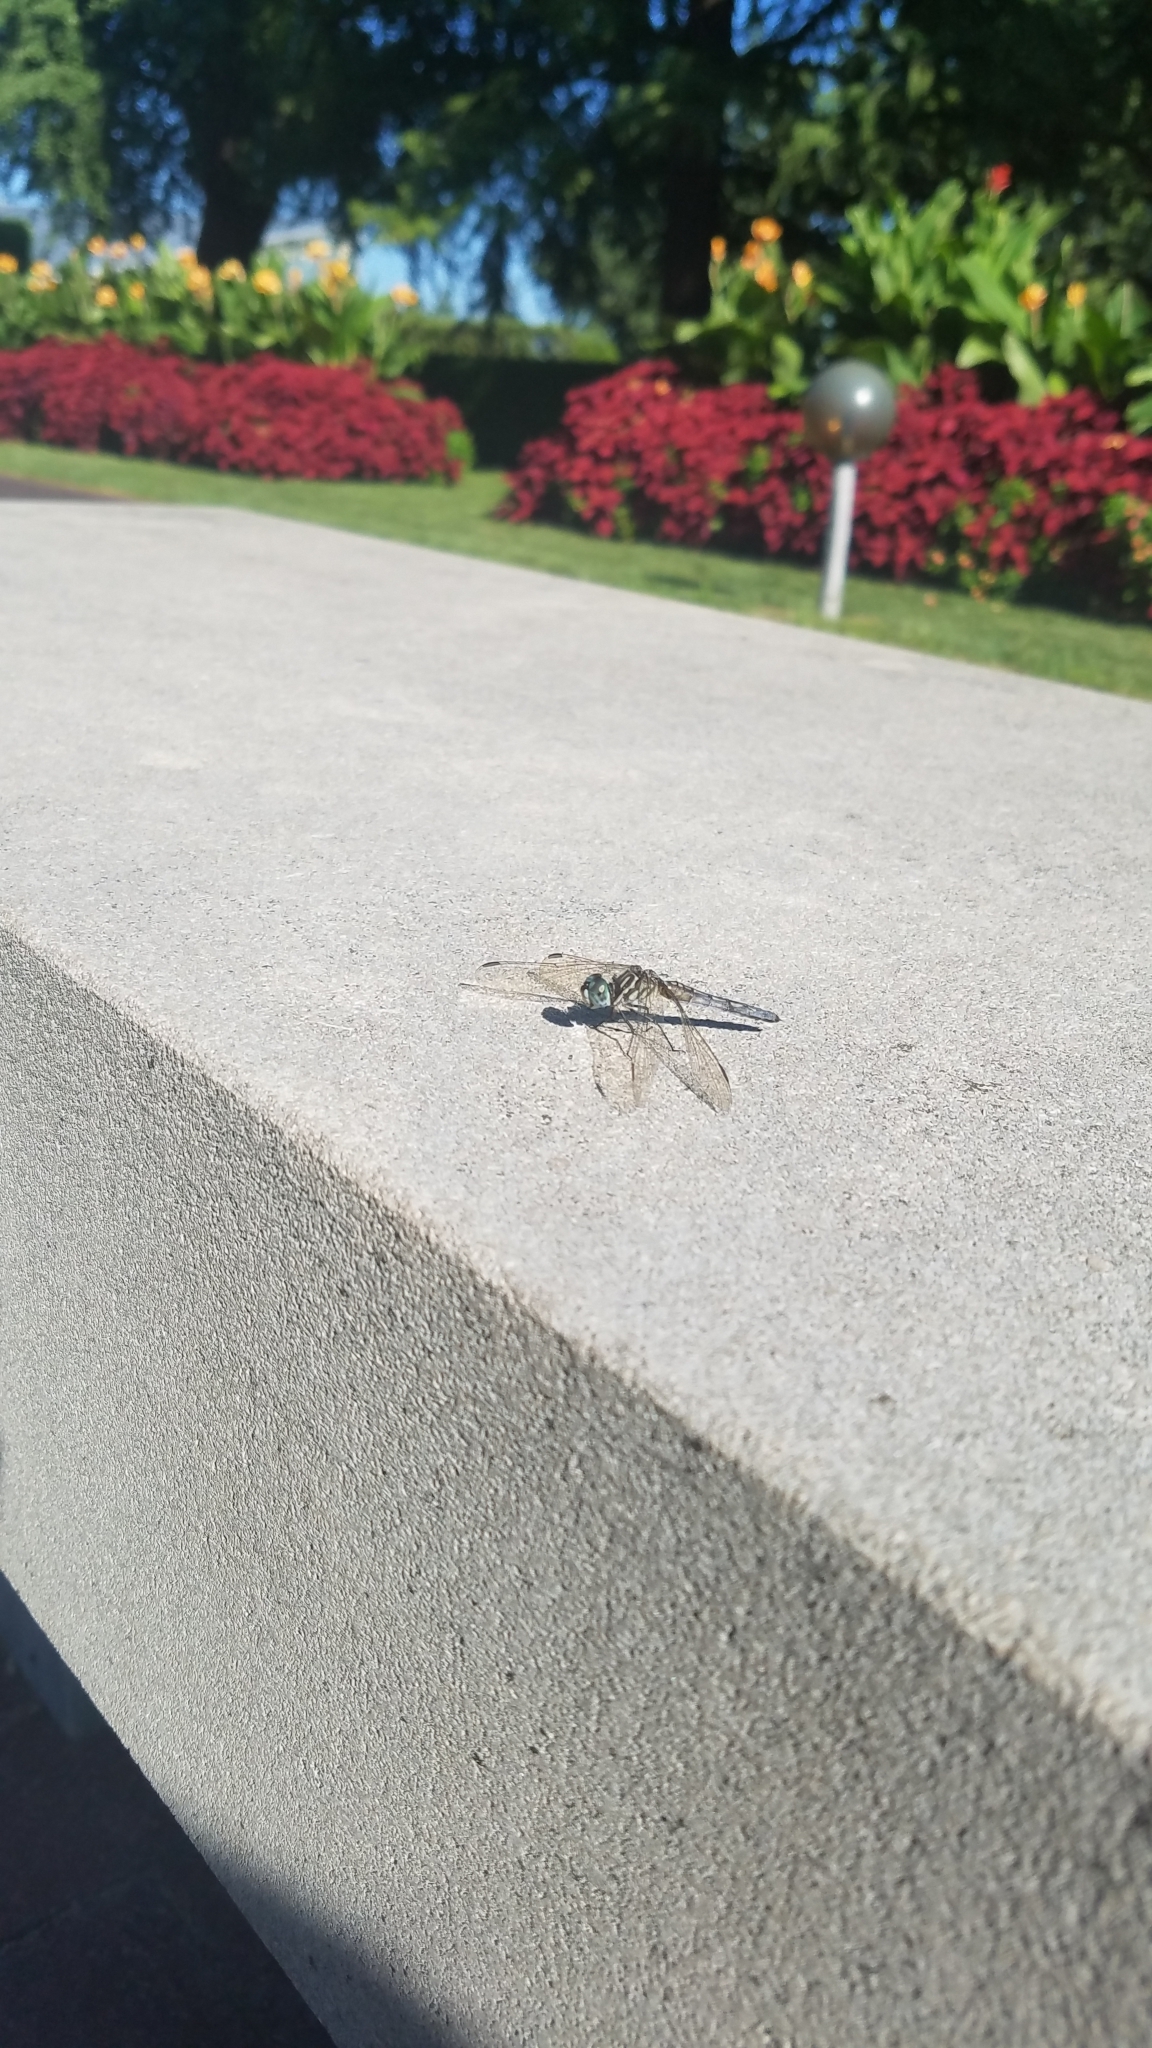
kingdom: Animalia
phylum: Arthropoda
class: Insecta
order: Odonata
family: Libellulidae
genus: Pachydiplax
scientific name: Pachydiplax longipennis
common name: Blue dasher
